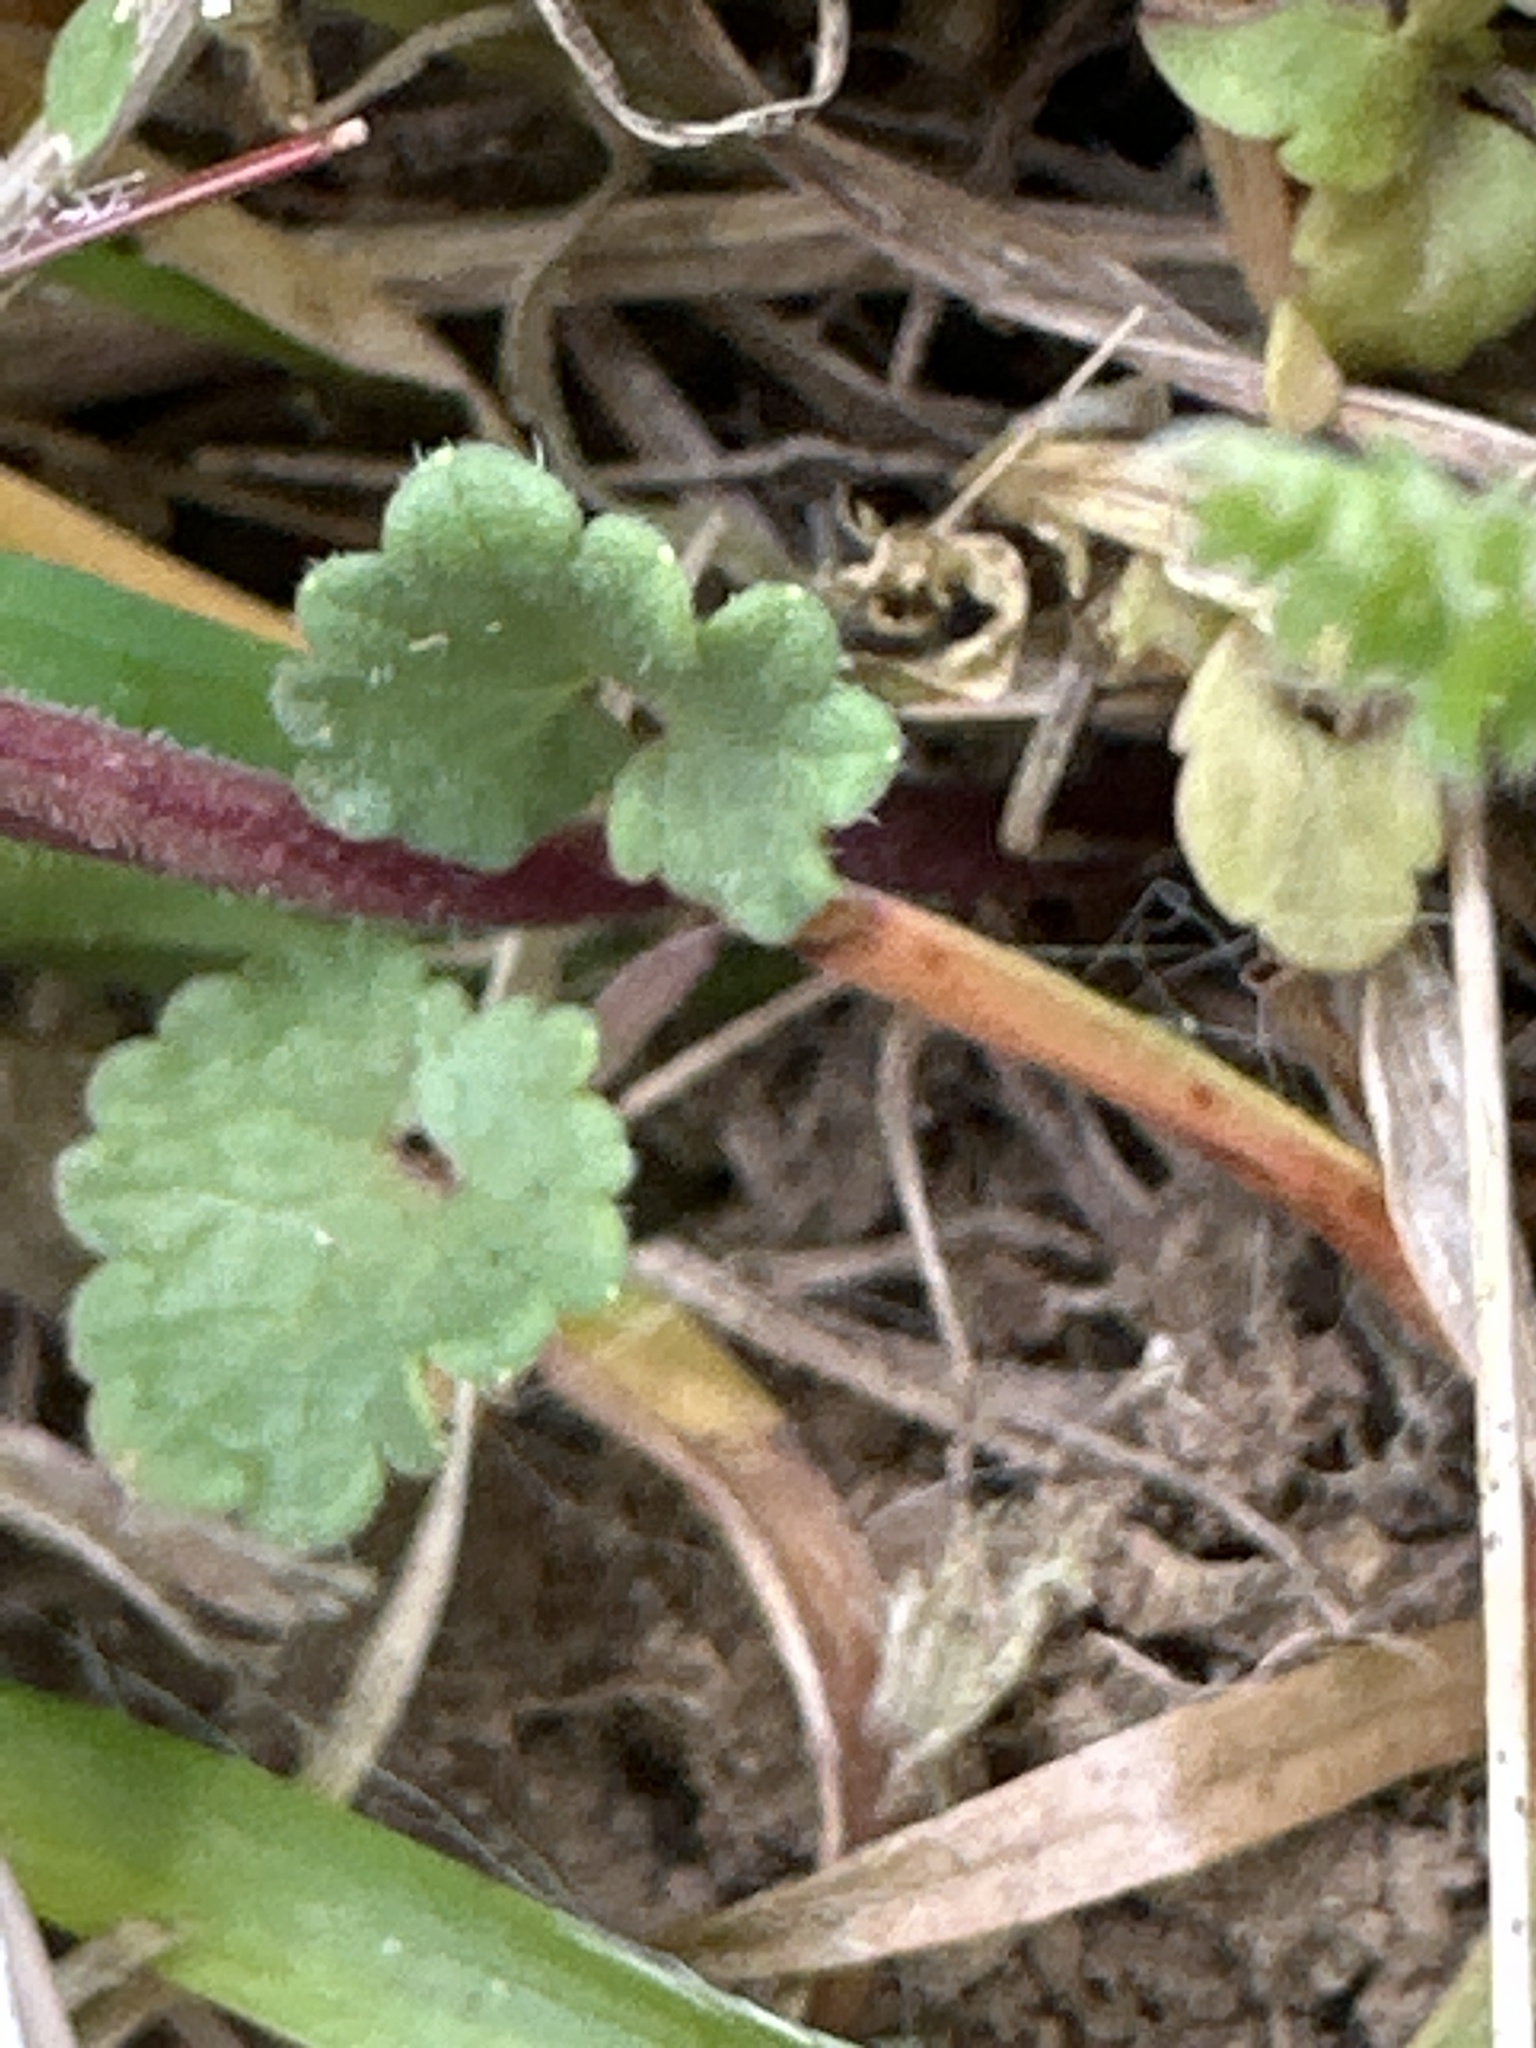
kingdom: Plantae
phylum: Tracheophyta
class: Magnoliopsida
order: Lamiales
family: Lamiaceae
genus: Glechoma
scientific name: Glechoma hederacea
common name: Ground ivy
